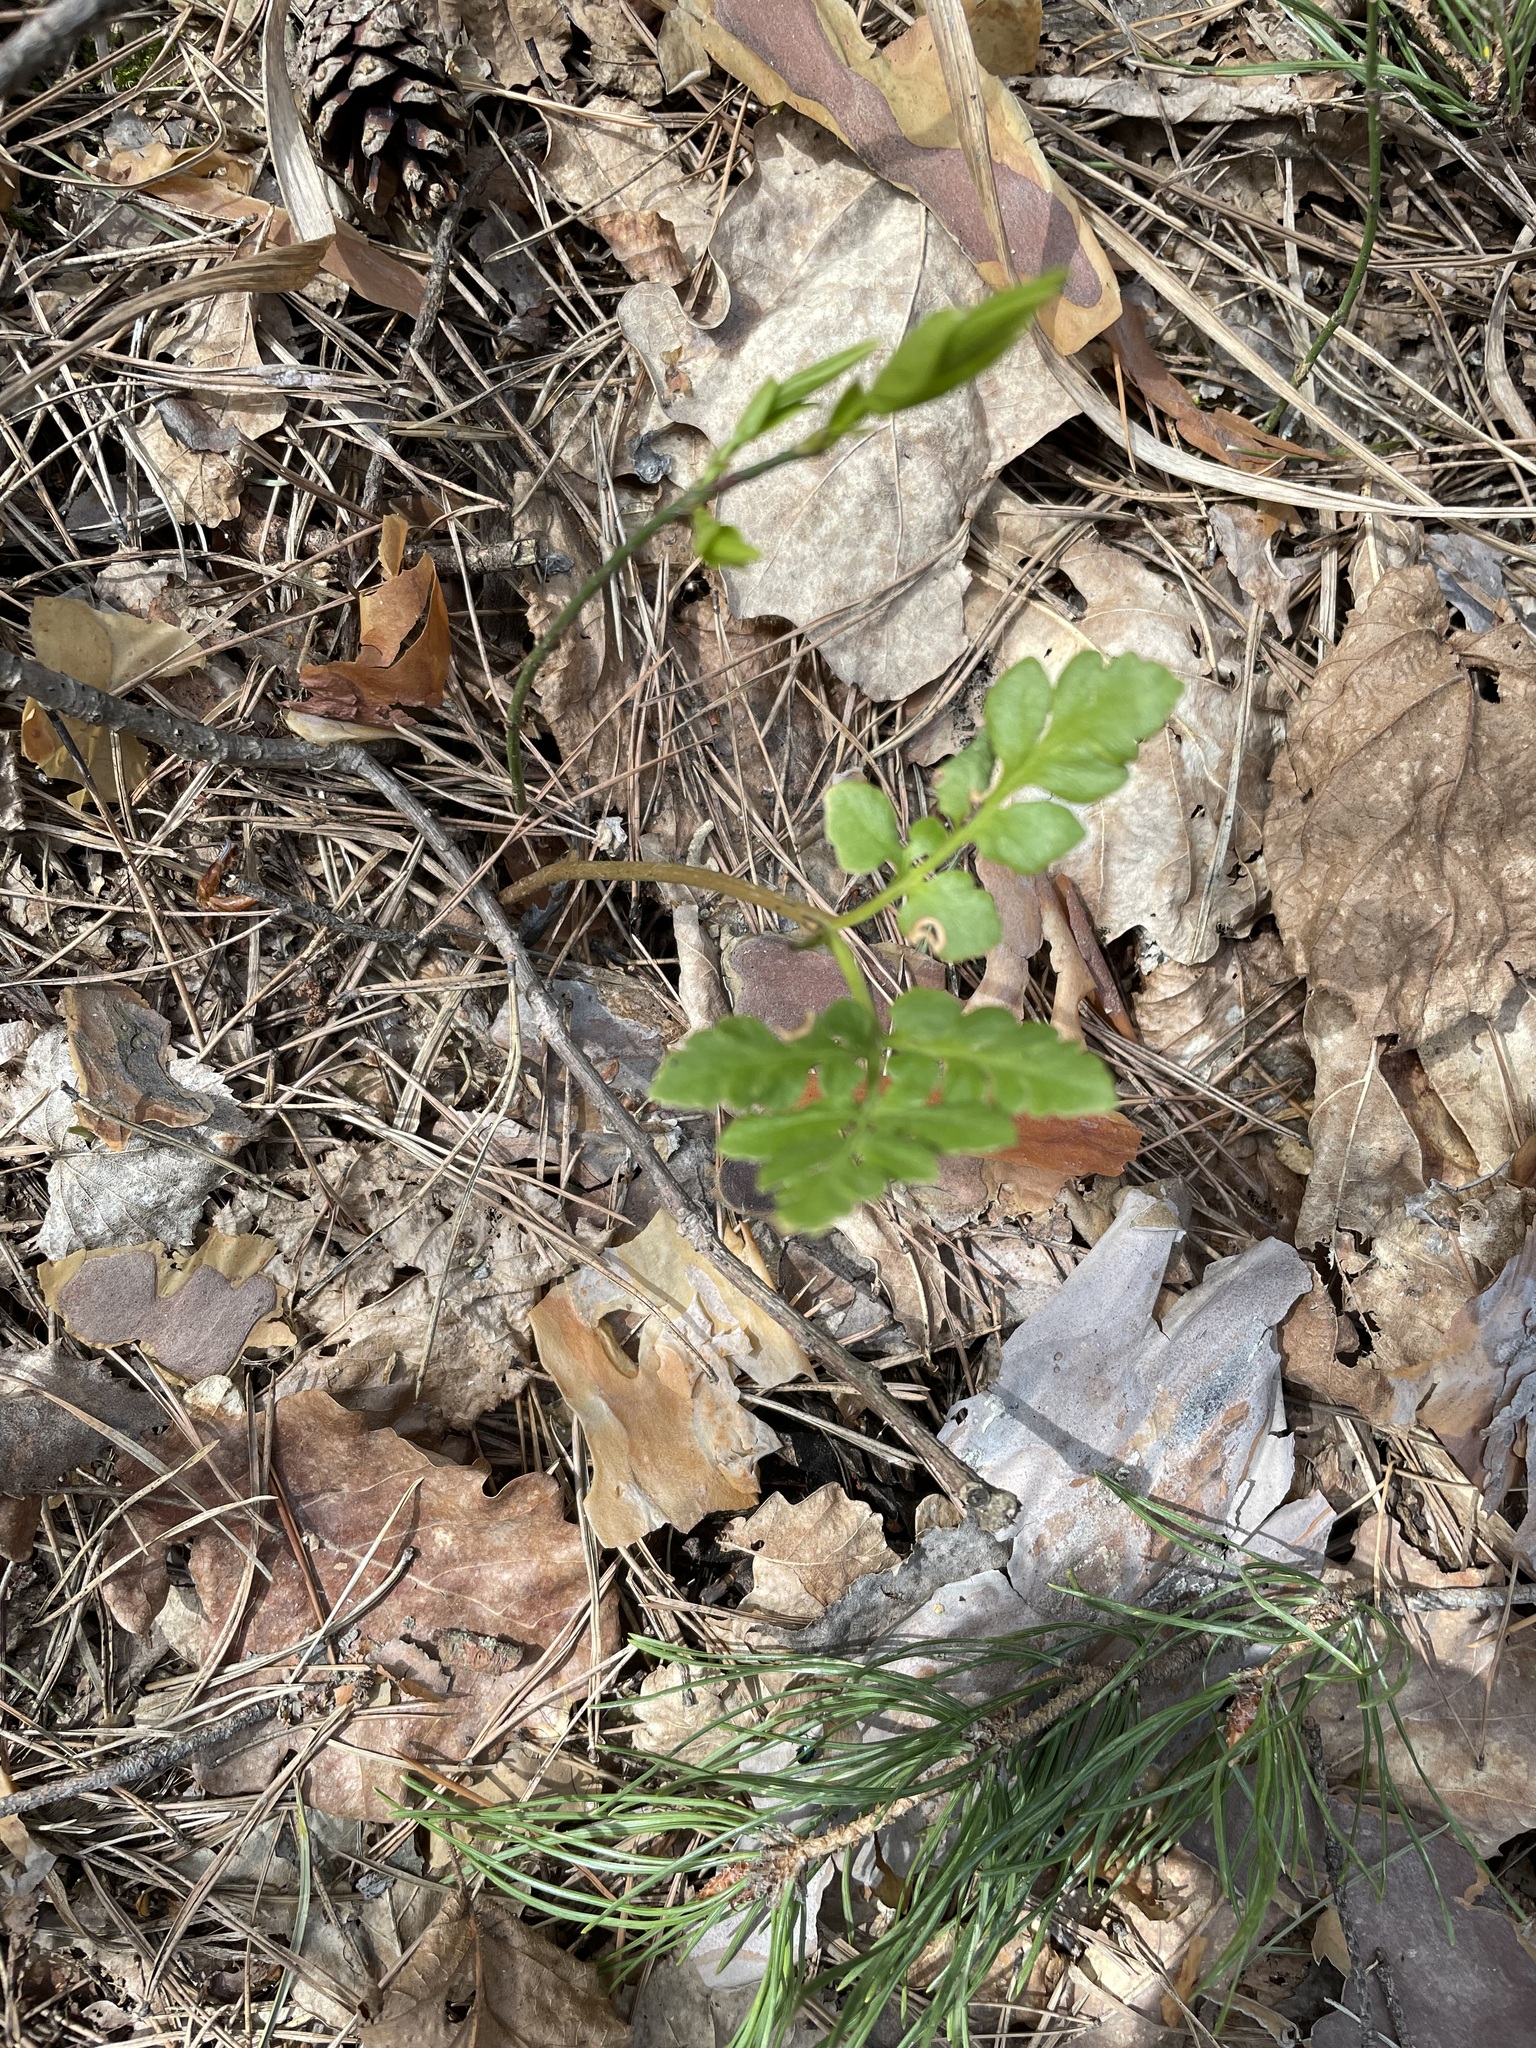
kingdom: Plantae
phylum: Tracheophyta
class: Polypodiopsida
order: Ophioglossales
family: Ophioglossaceae
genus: Sceptridium
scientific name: Sceptridium multifidum
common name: Leathery grape fern
